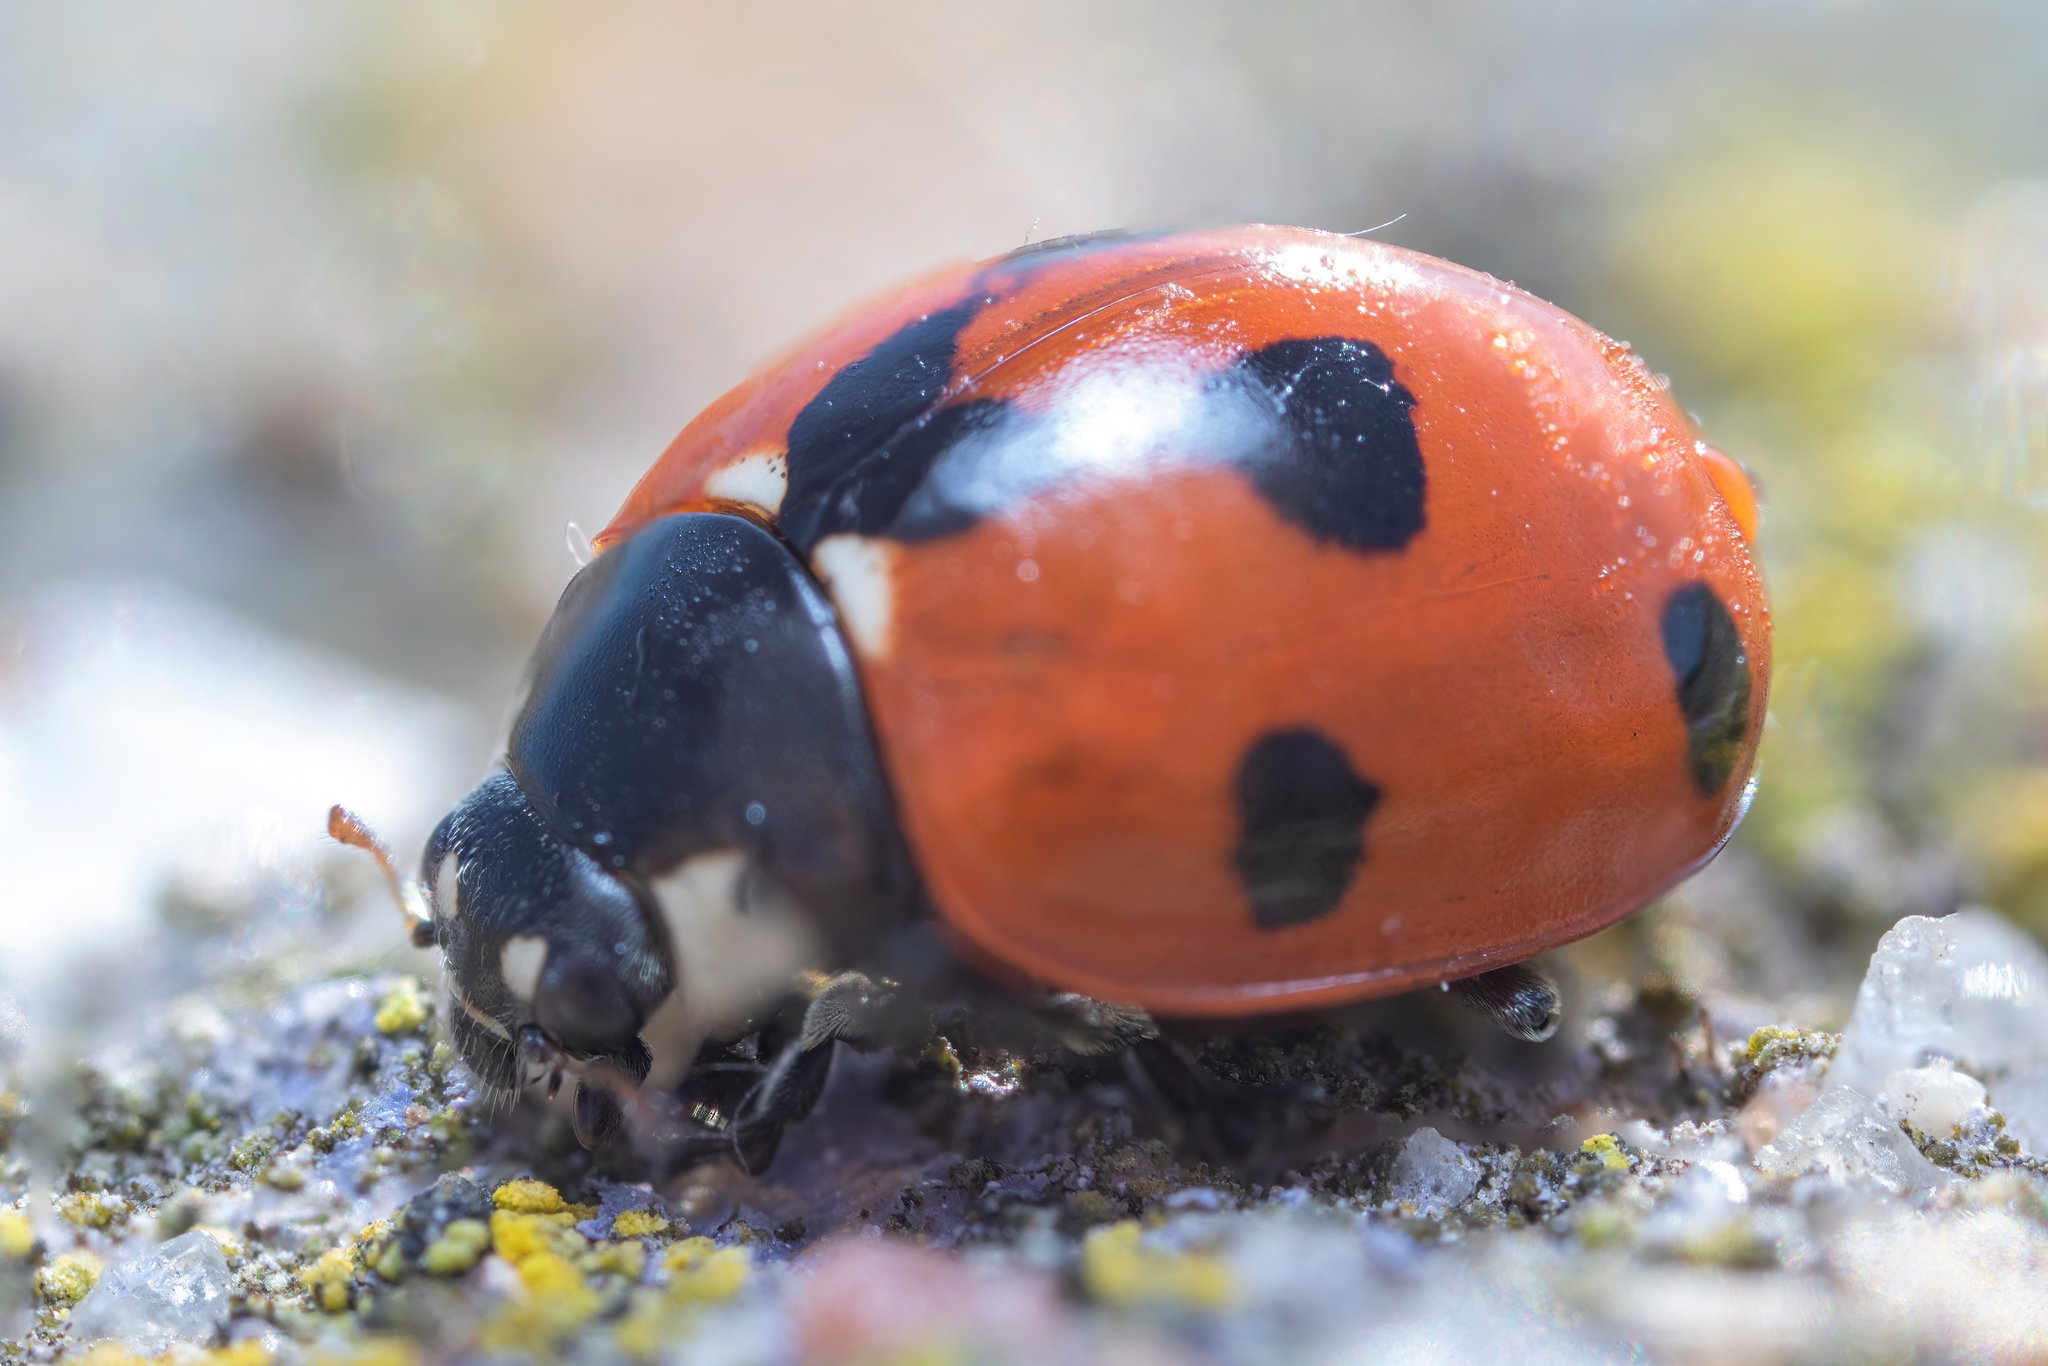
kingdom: Animalia
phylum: Arthropoda
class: Insecta
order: Coleoptera
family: Coccinellidae
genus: Coccinella
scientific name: Coccinella septempunctata
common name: Sevenspotted lady beetle
